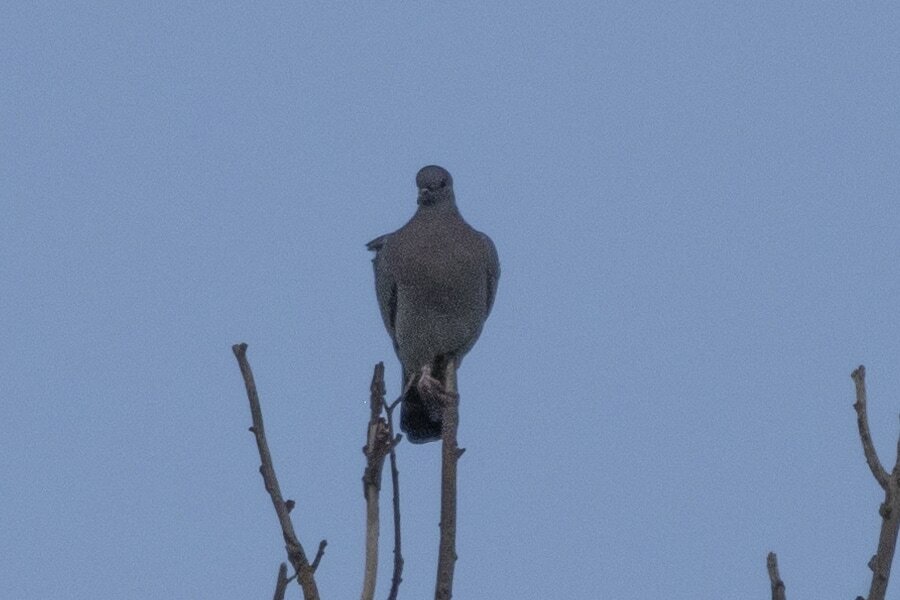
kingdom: Animalia
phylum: Chordata
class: Aves
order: Columbiformes
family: Columbidae
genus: Columba
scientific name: Columba oenas
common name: Stock dove
